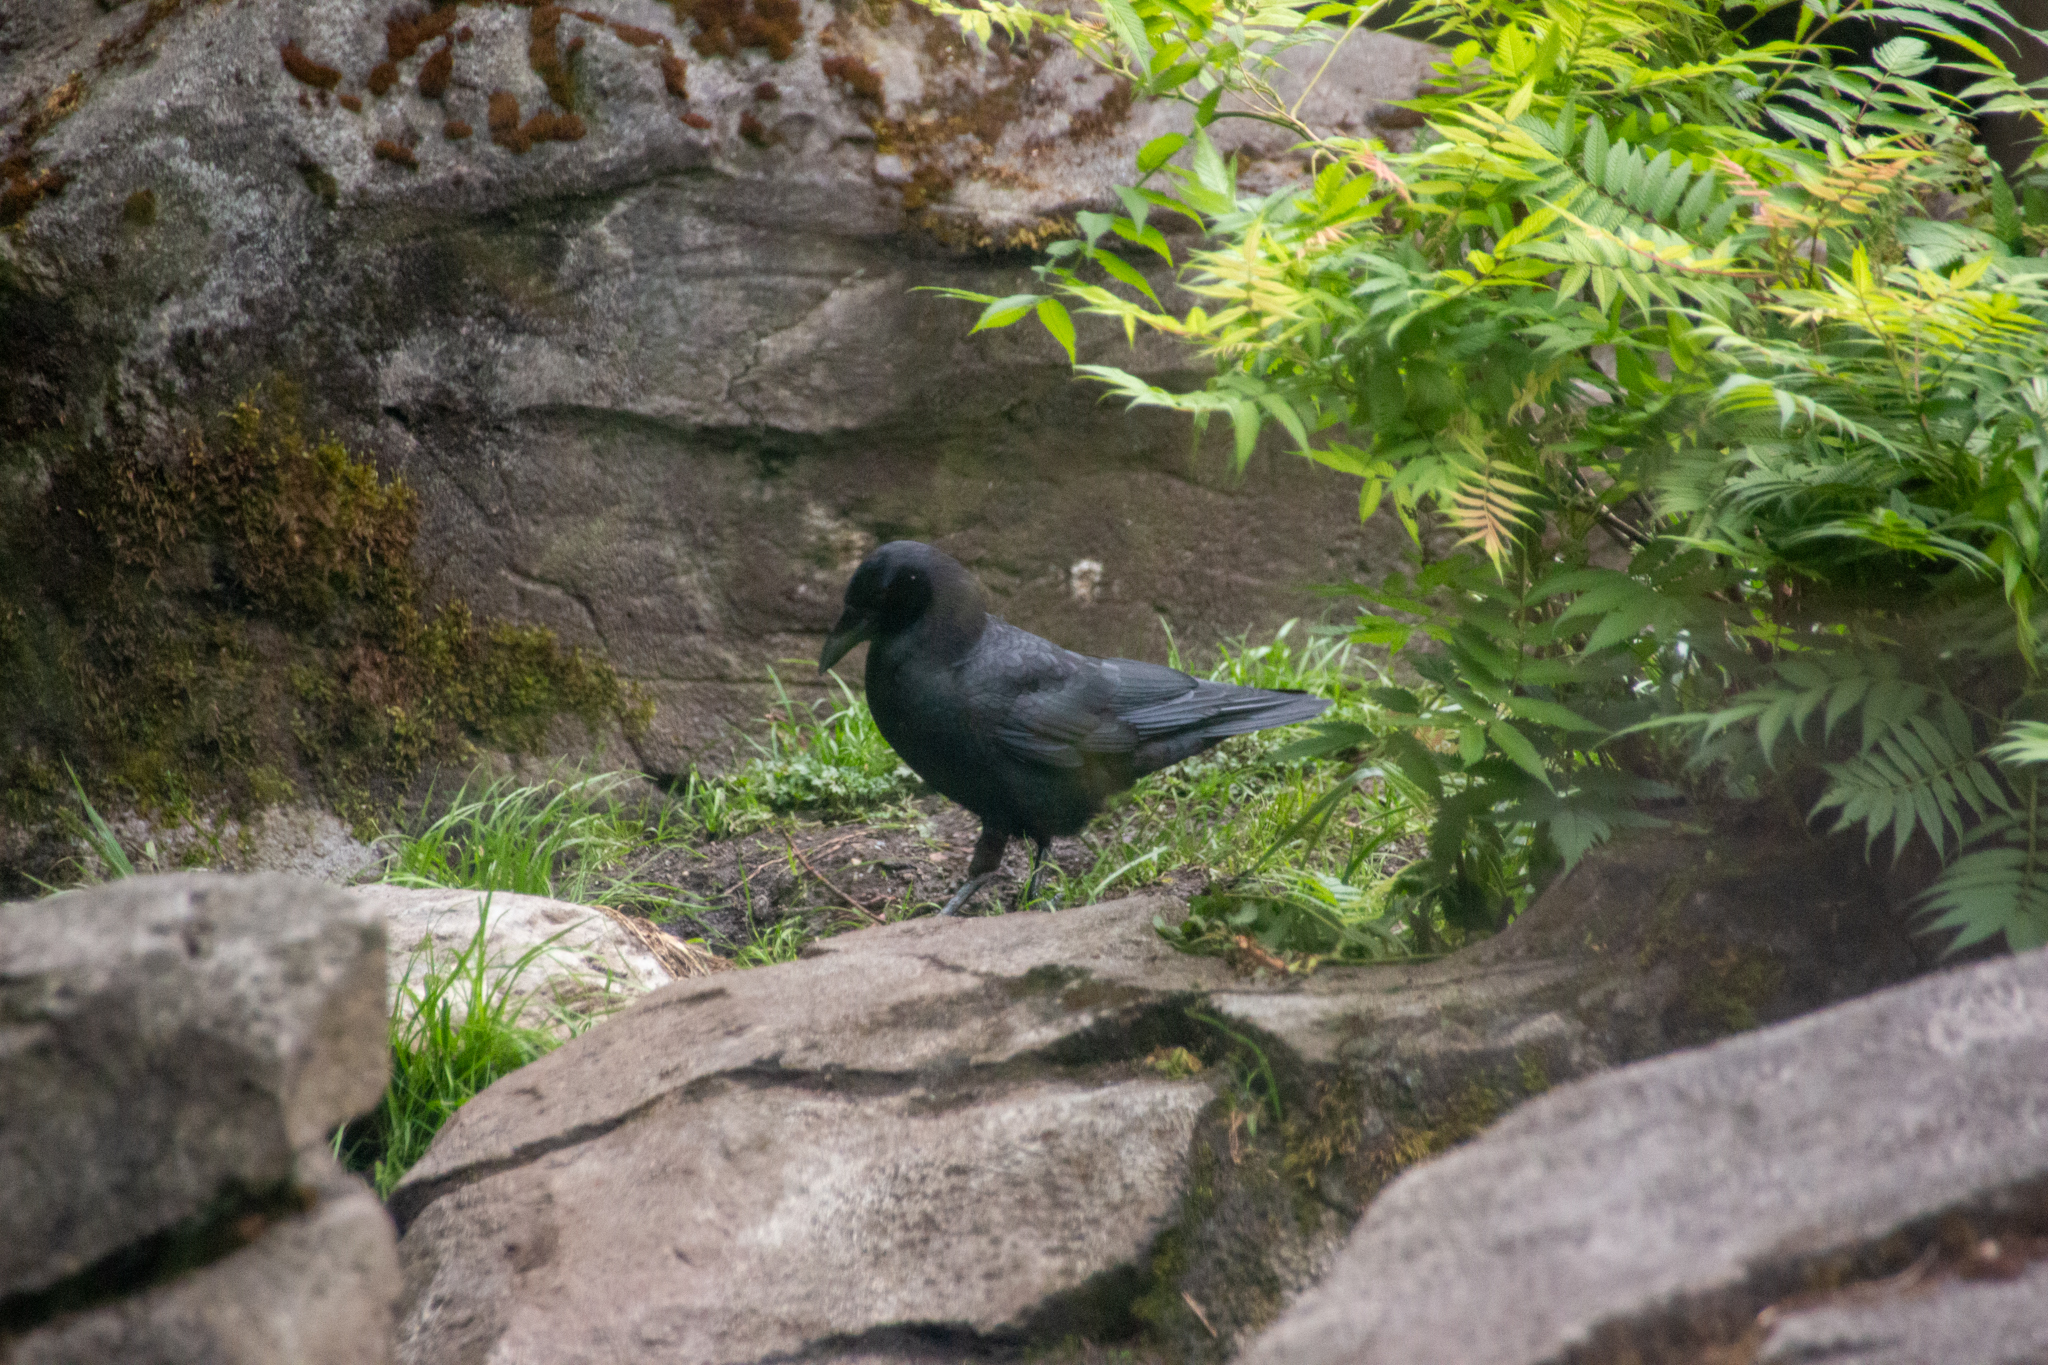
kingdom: Animalia
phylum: Chordata
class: Aves
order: Passeriformes
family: Corvidae
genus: Corvus
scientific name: Corvus brachyrhynchos
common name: American crow
